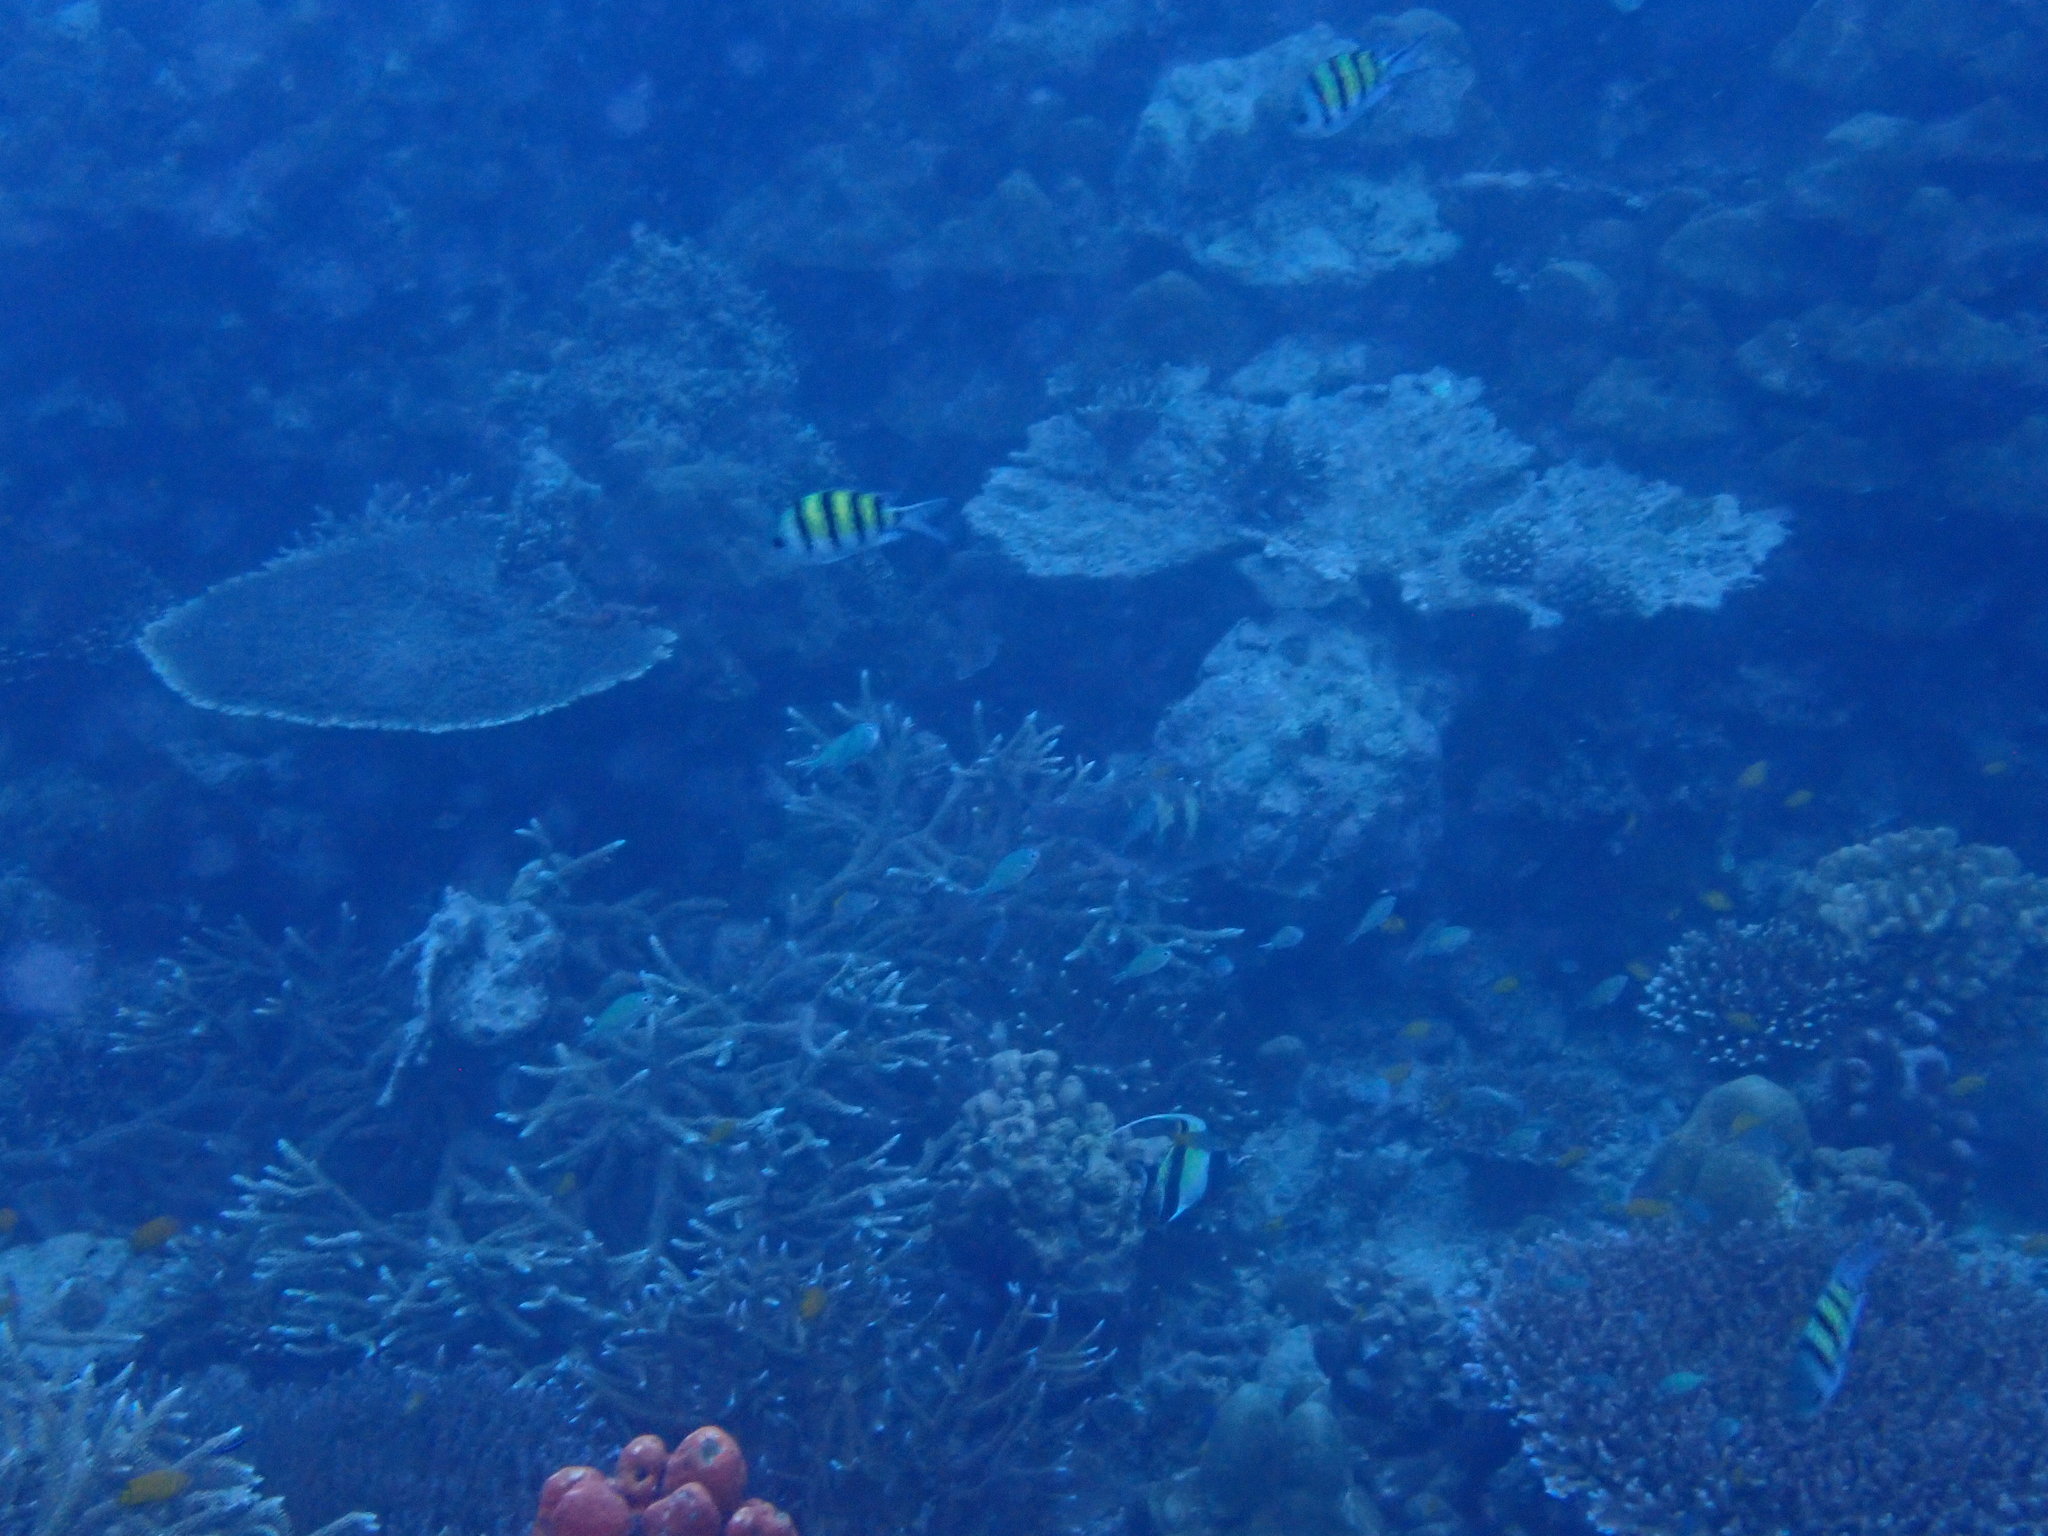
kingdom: Animalia
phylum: Chordata
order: Perciformes
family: Pomacentridae
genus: Abudefduf
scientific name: Abudefduf vaigiensis
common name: Indo-pacific sergeant
